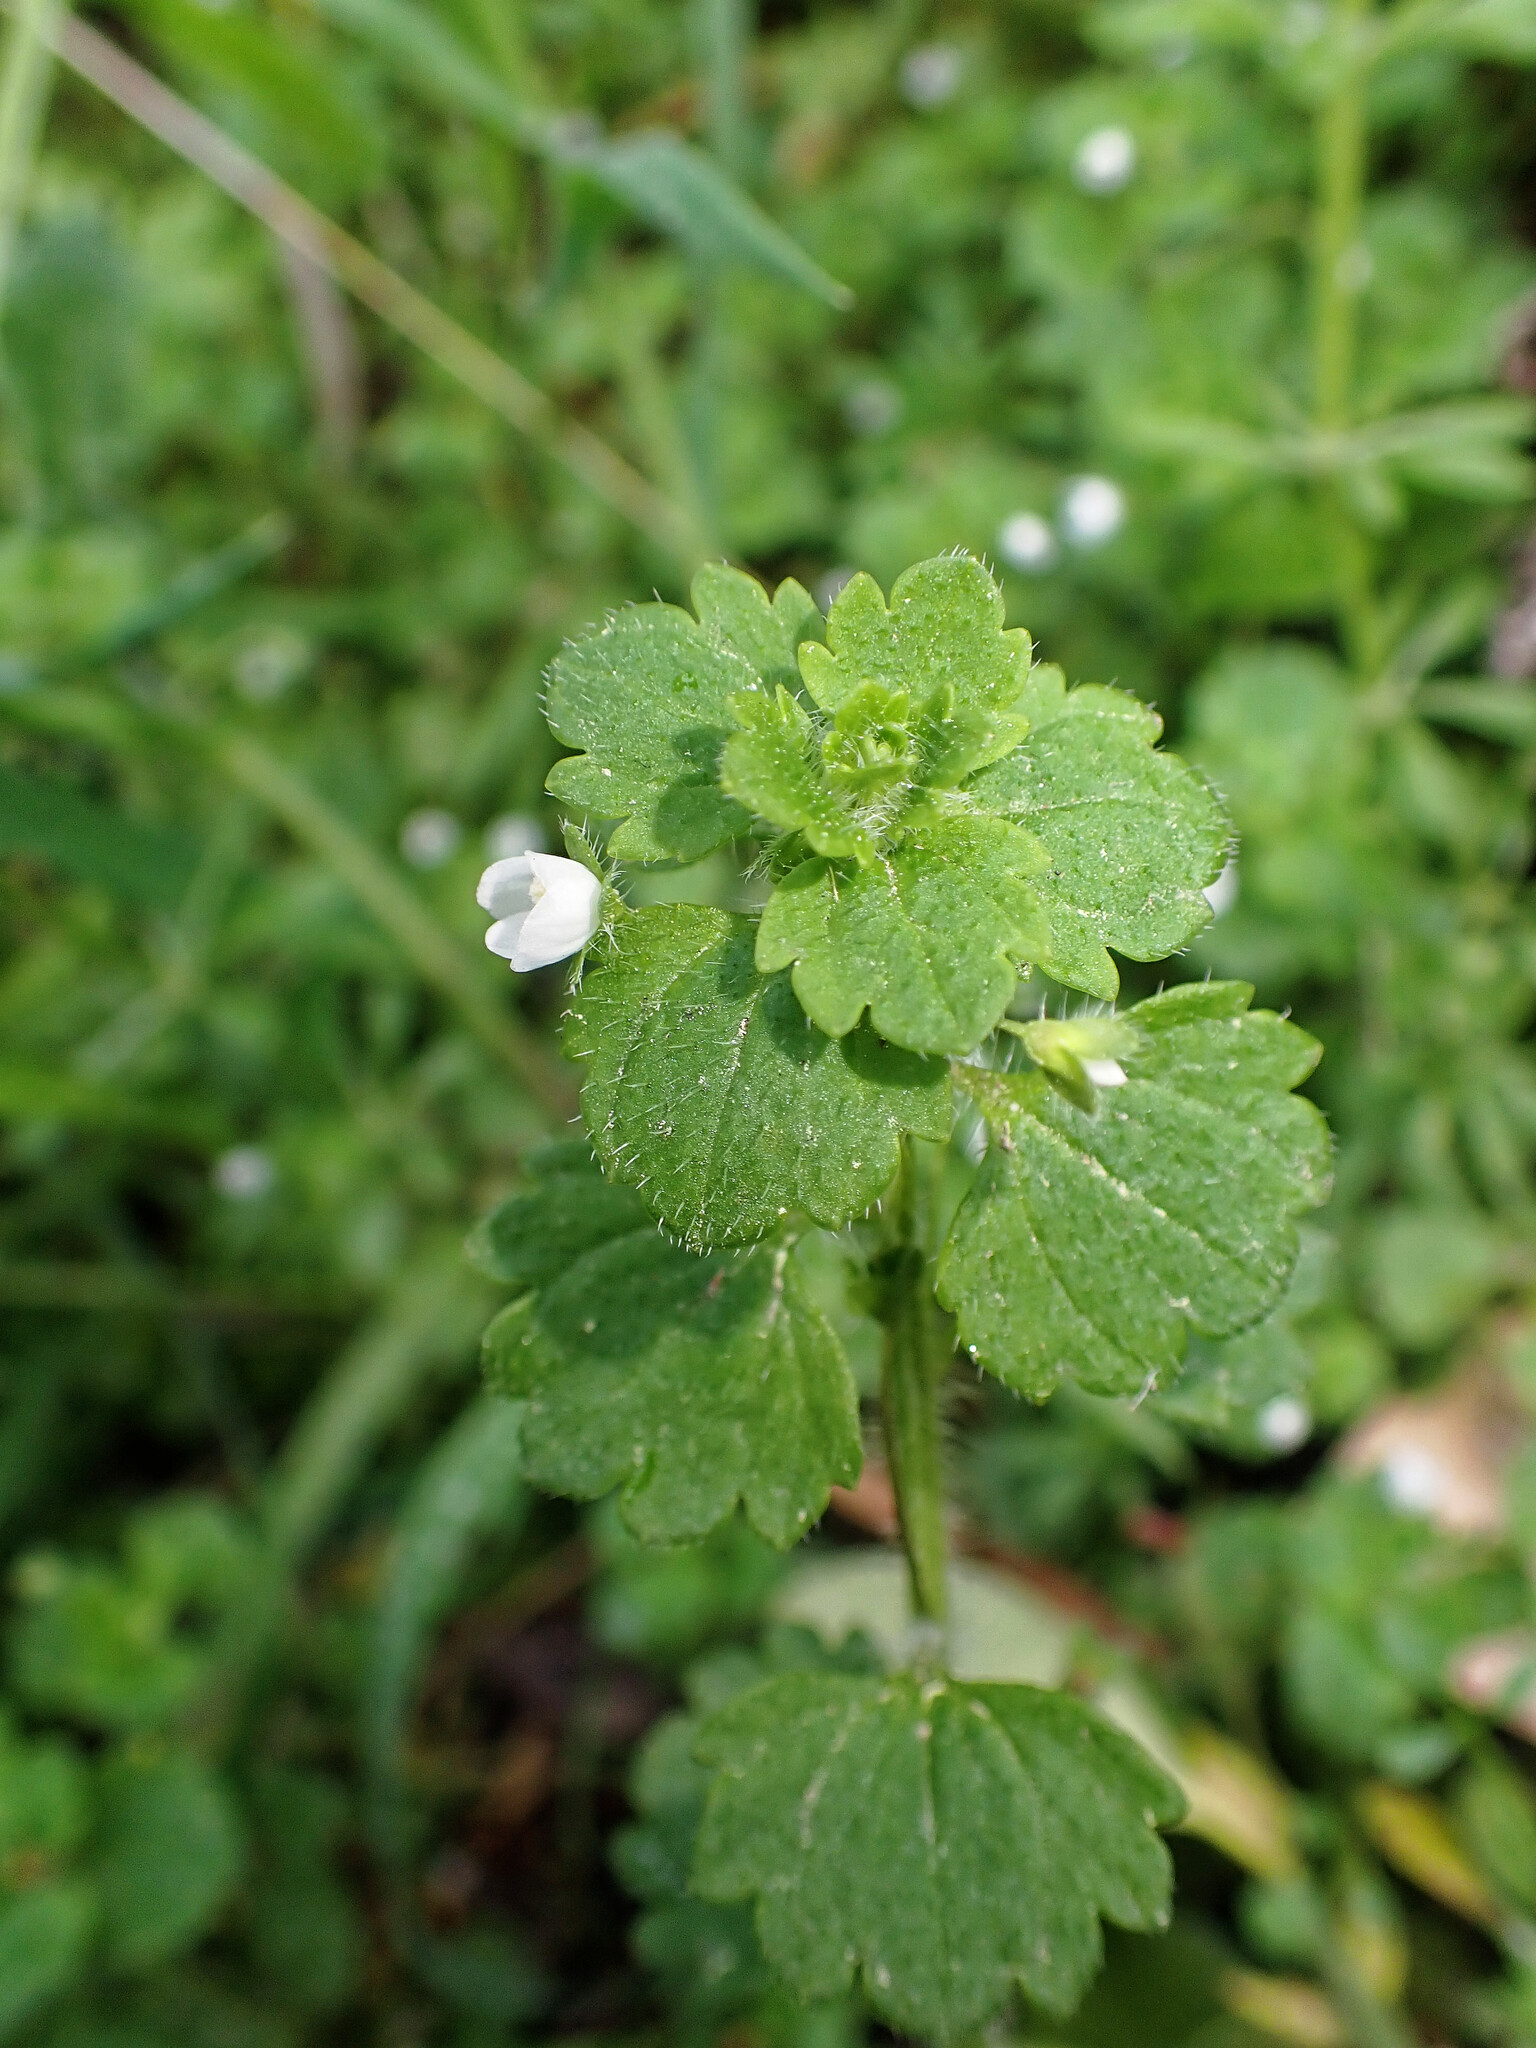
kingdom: Plantae
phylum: Tracheophyta
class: Magnoliopsida
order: Lamiales
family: Plantaginaceae
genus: Veronica
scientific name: Veronica cymbalaria
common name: Pale speedwell
